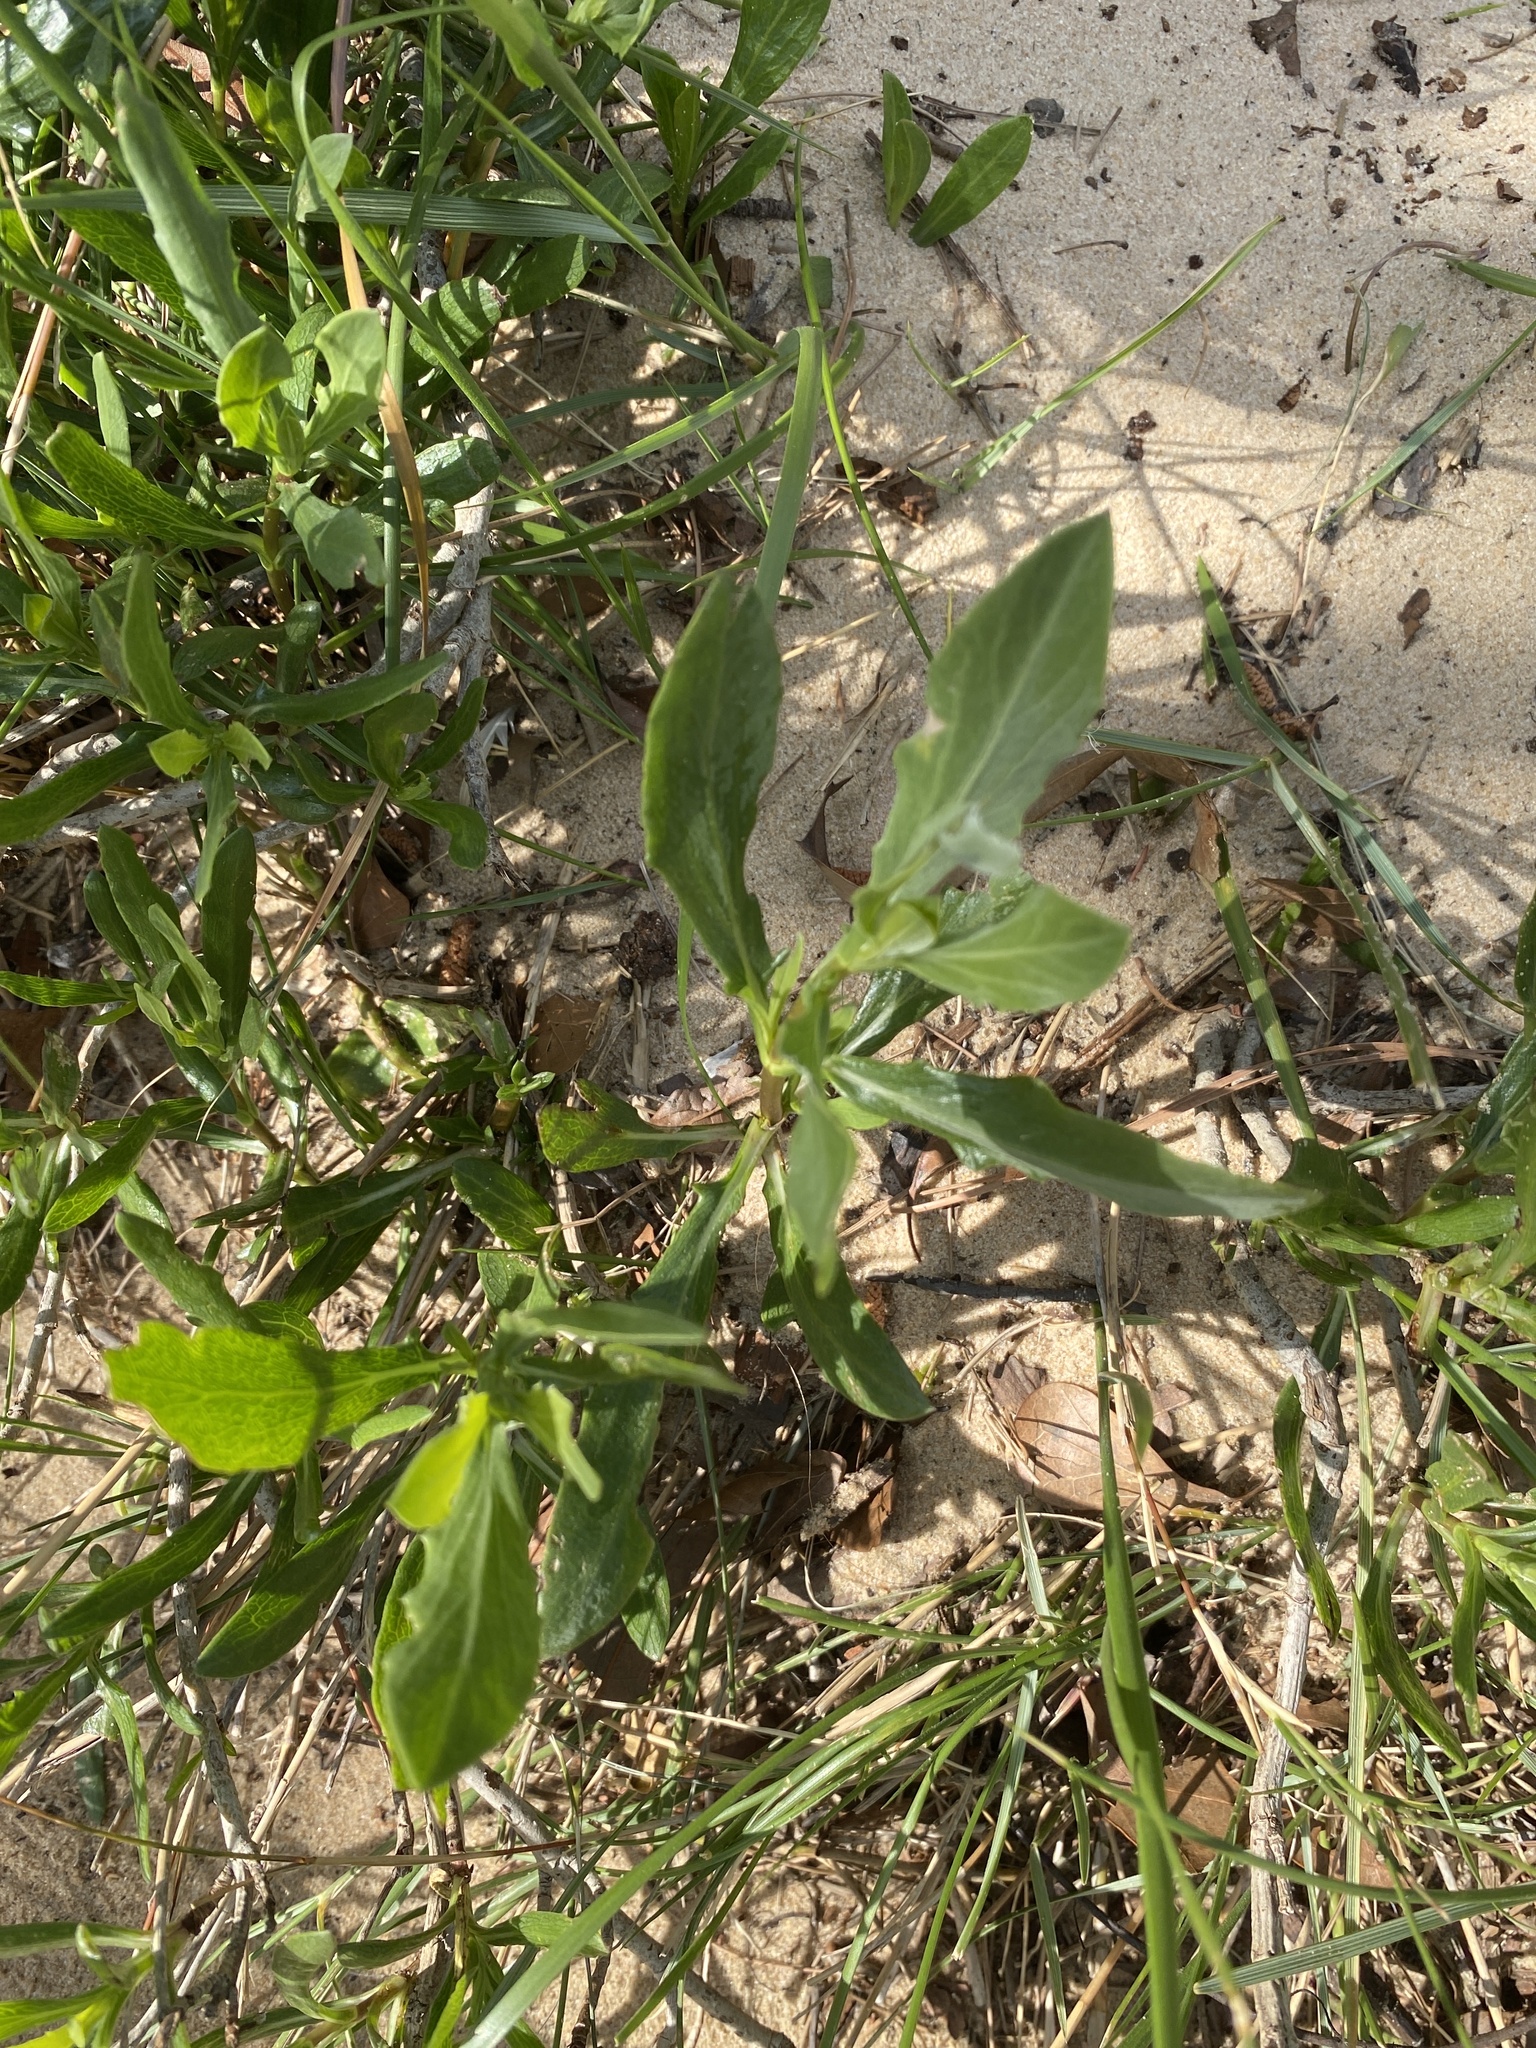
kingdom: Plantae
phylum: Tracheophyta
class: Magnoliopsida
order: Asterales
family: Asteraceae
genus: Borrichia
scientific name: Borrichia frutescens
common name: Sea oxeye
